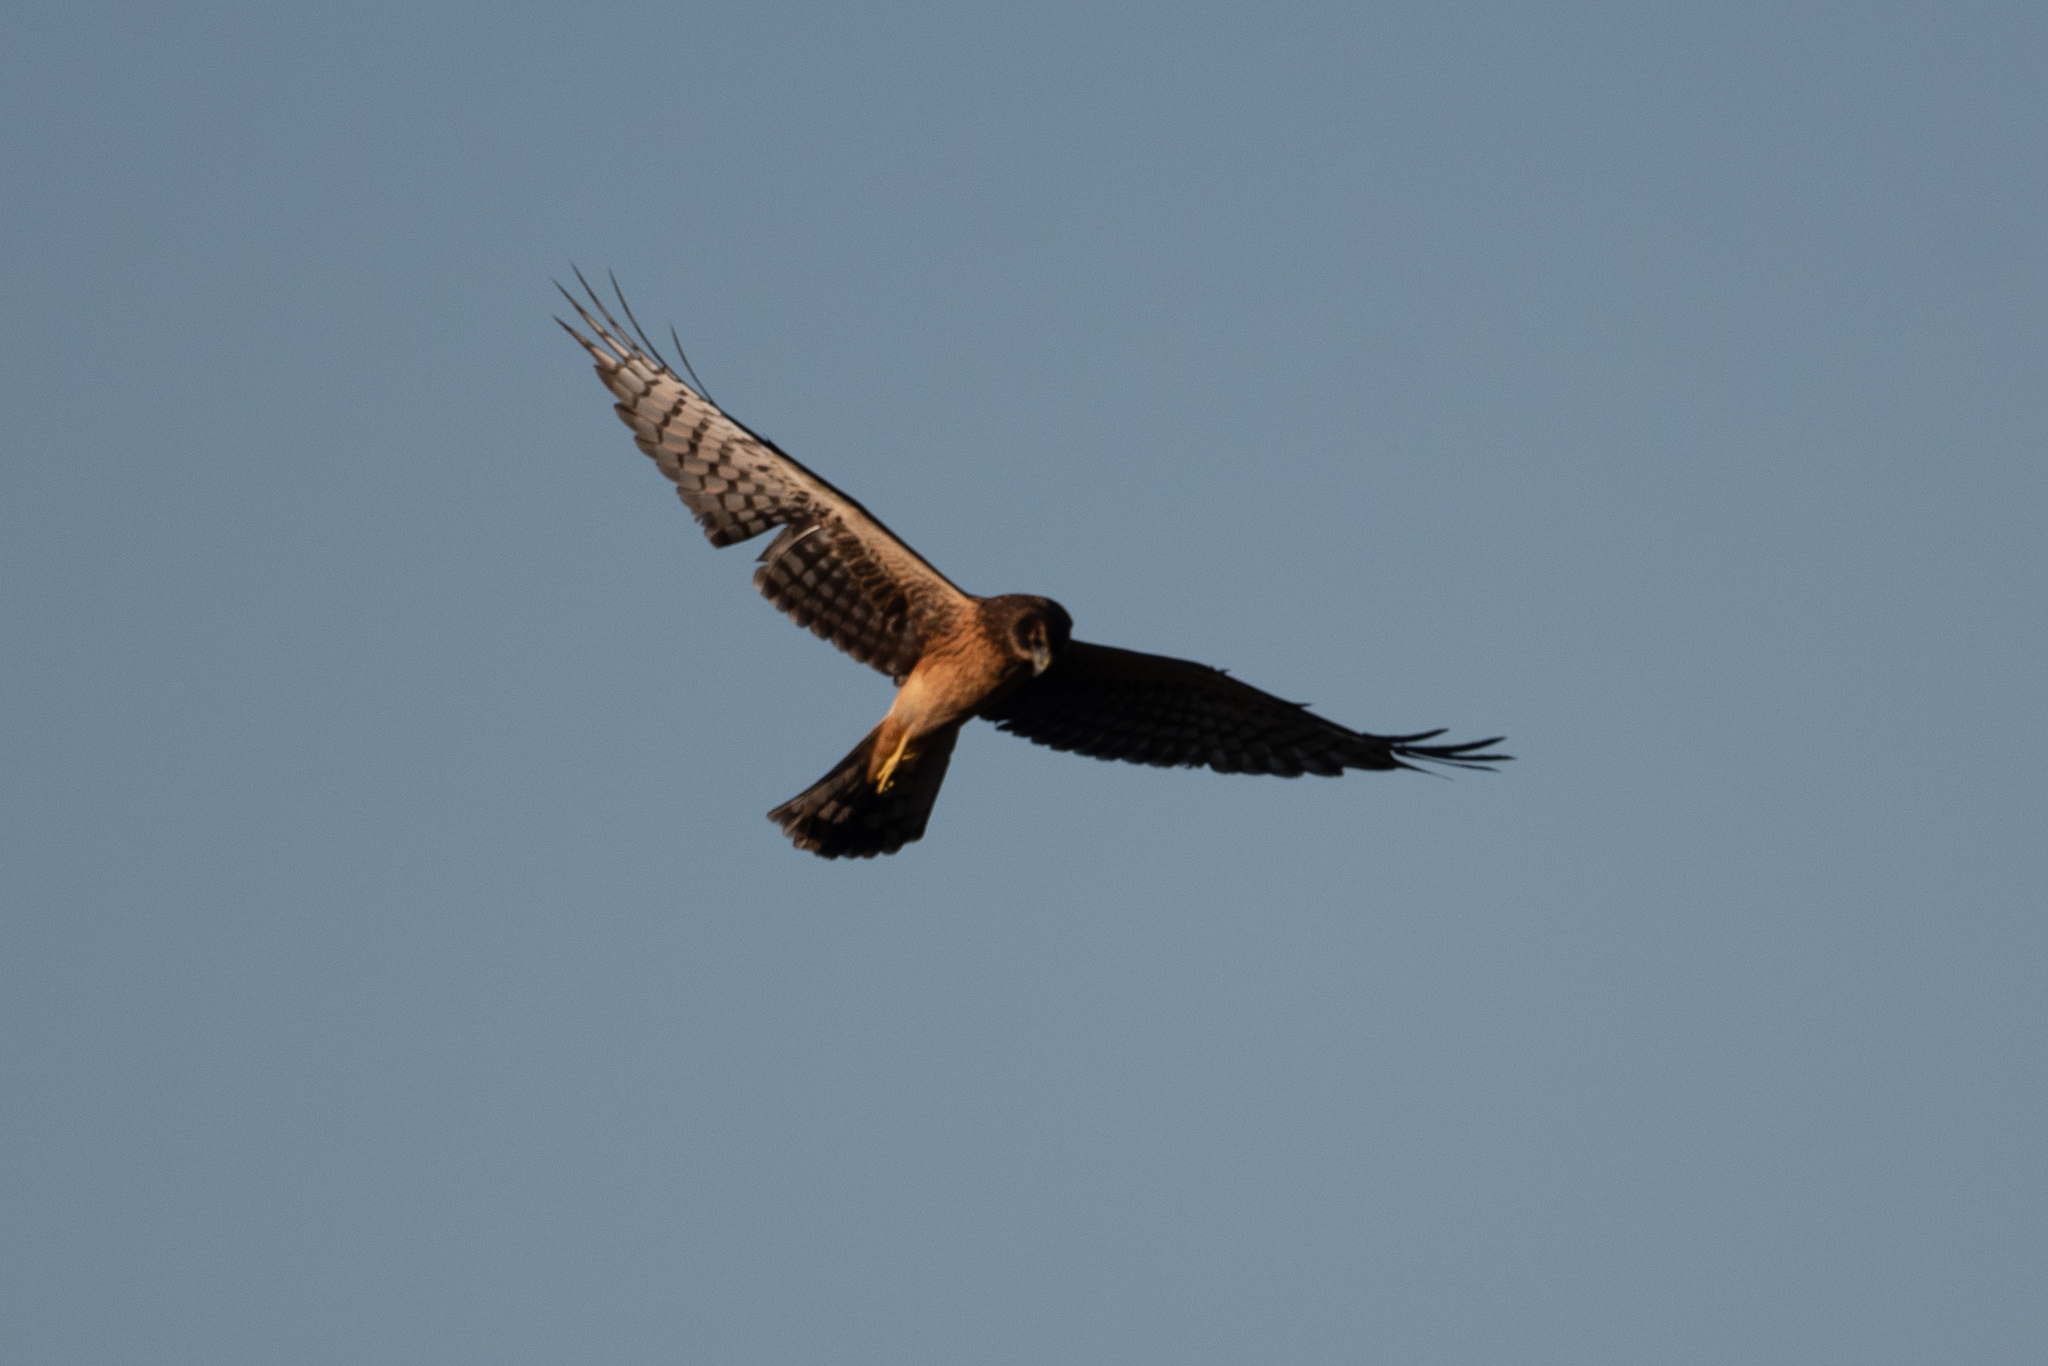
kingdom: Animalia
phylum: Chordata
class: Aves
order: Accipitriformes
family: Accipitridae
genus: Circus
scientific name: Circus cyaneus
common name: Hen harrier
